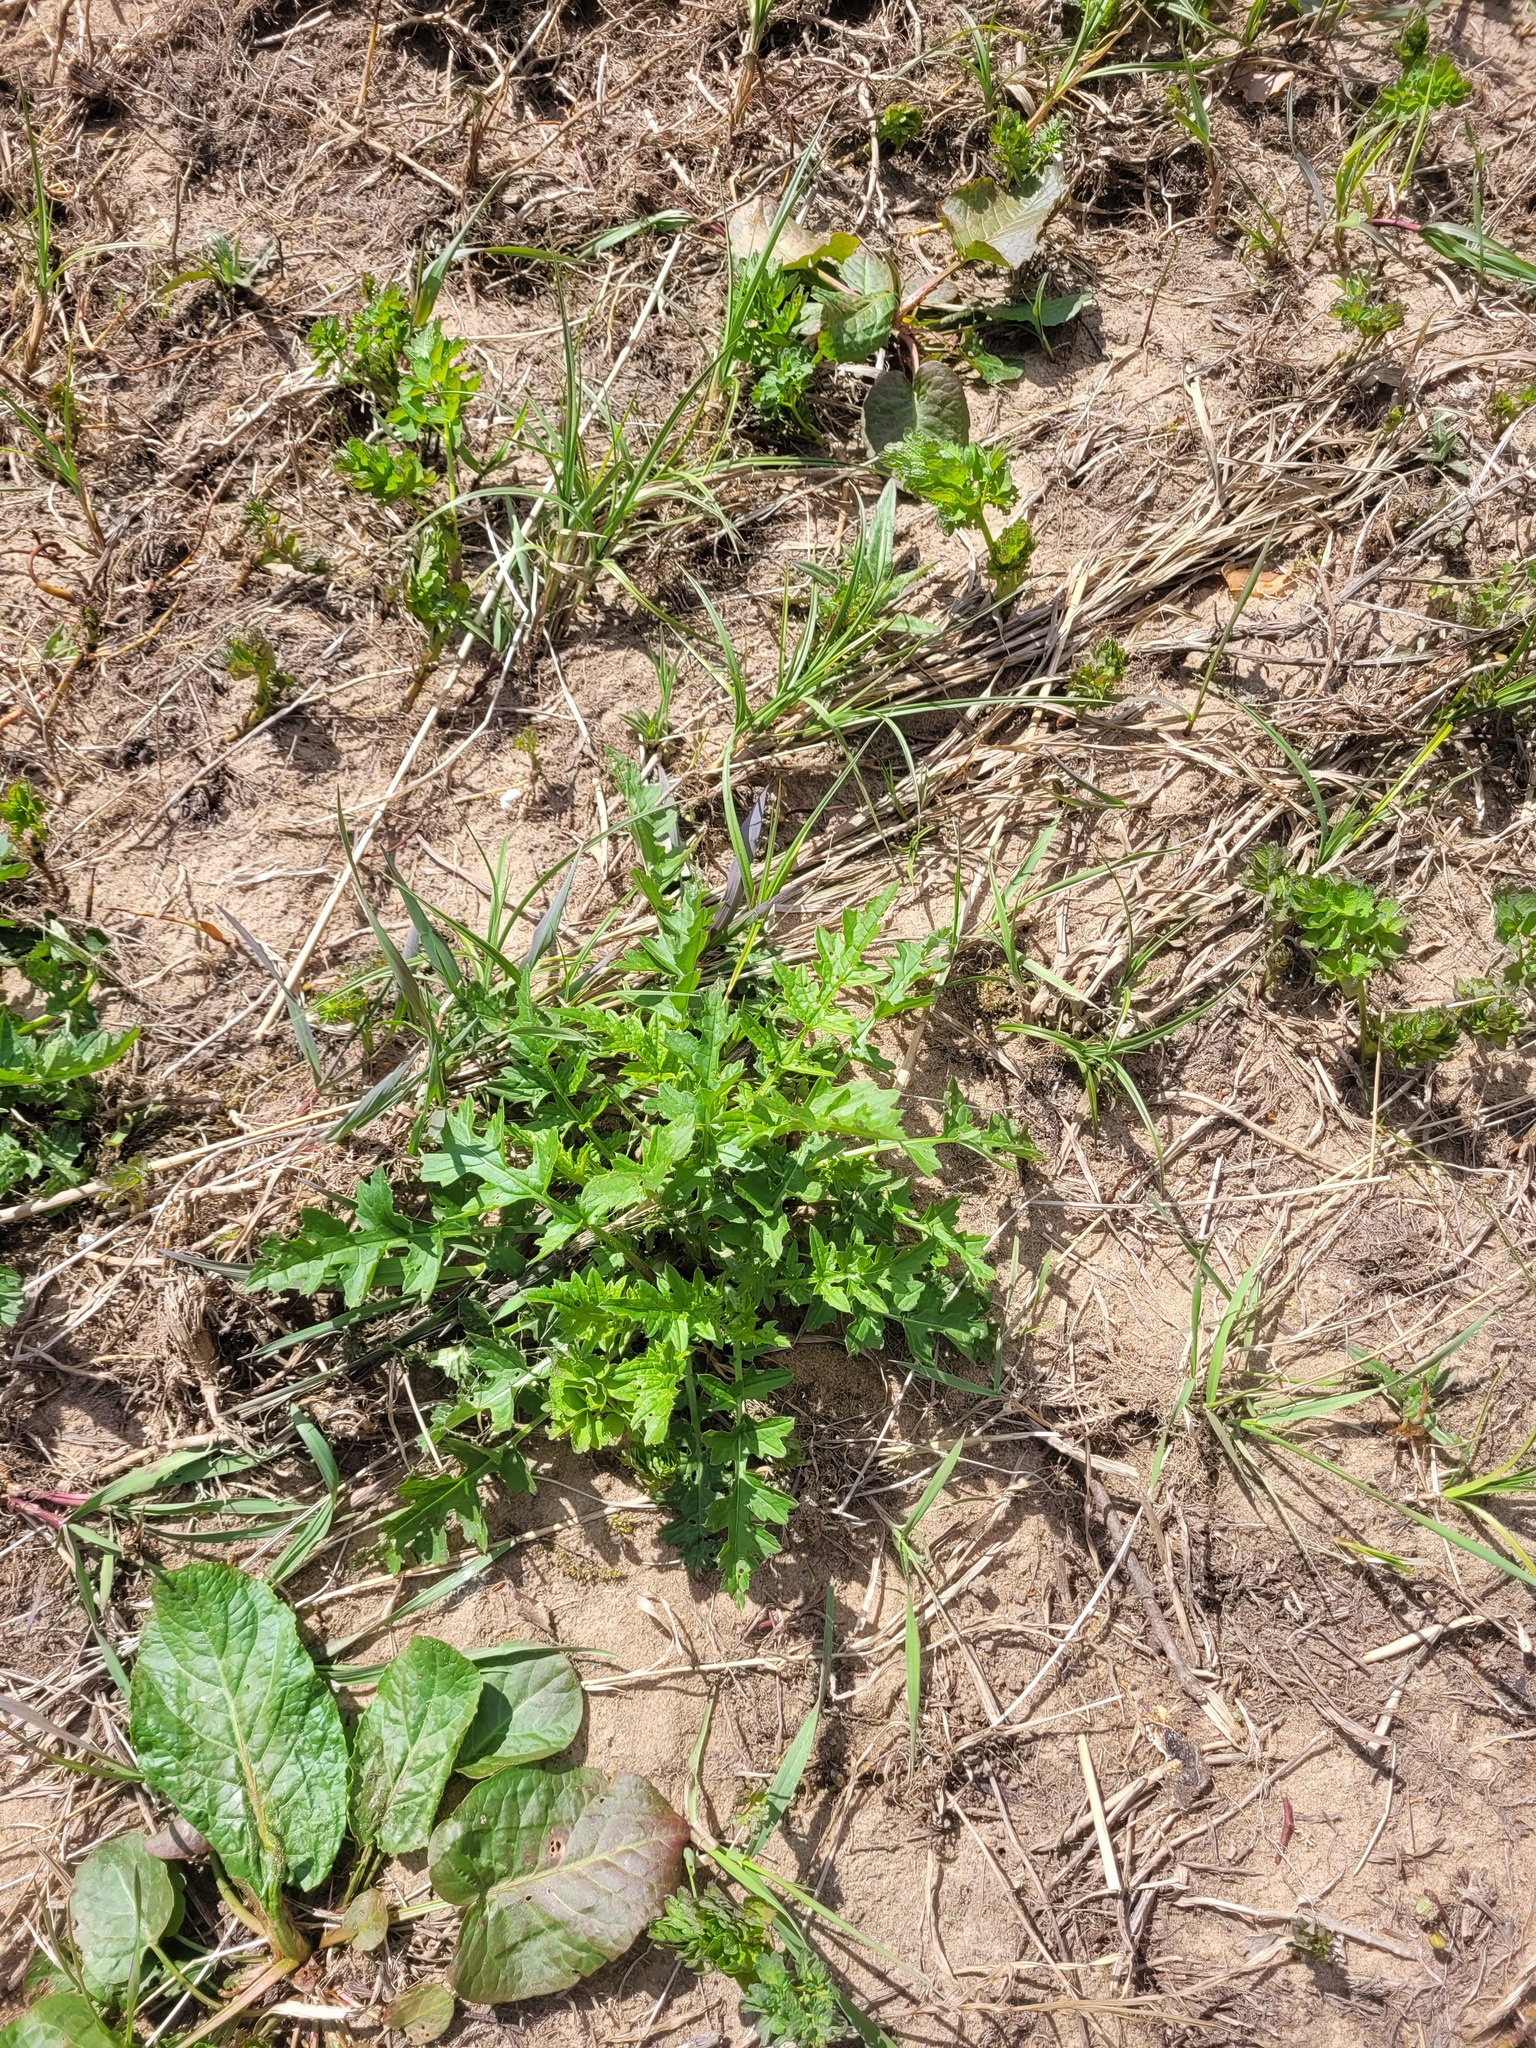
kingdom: Plantae
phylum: Tracheophyta
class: Magnoliopsida
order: Asterales
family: Asteraceae
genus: Carduus
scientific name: Carduus crispus
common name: Welted thistle
